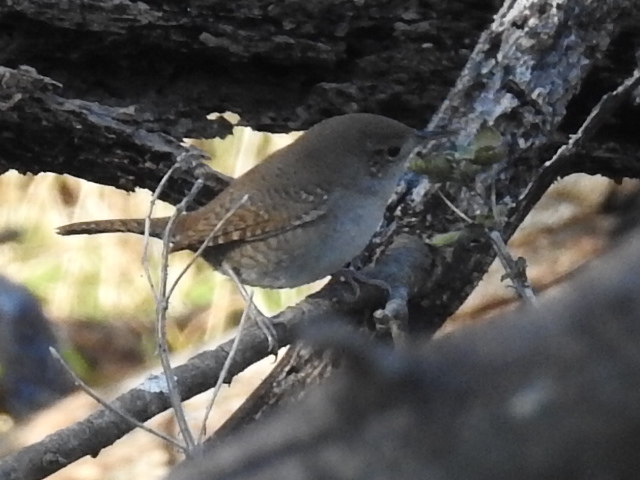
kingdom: Animalia
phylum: Chordata
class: Aves
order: Passeriformes
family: Troglodytidae
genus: Thryomanes
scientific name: Thryomanes bewickii
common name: Bewick's wren
